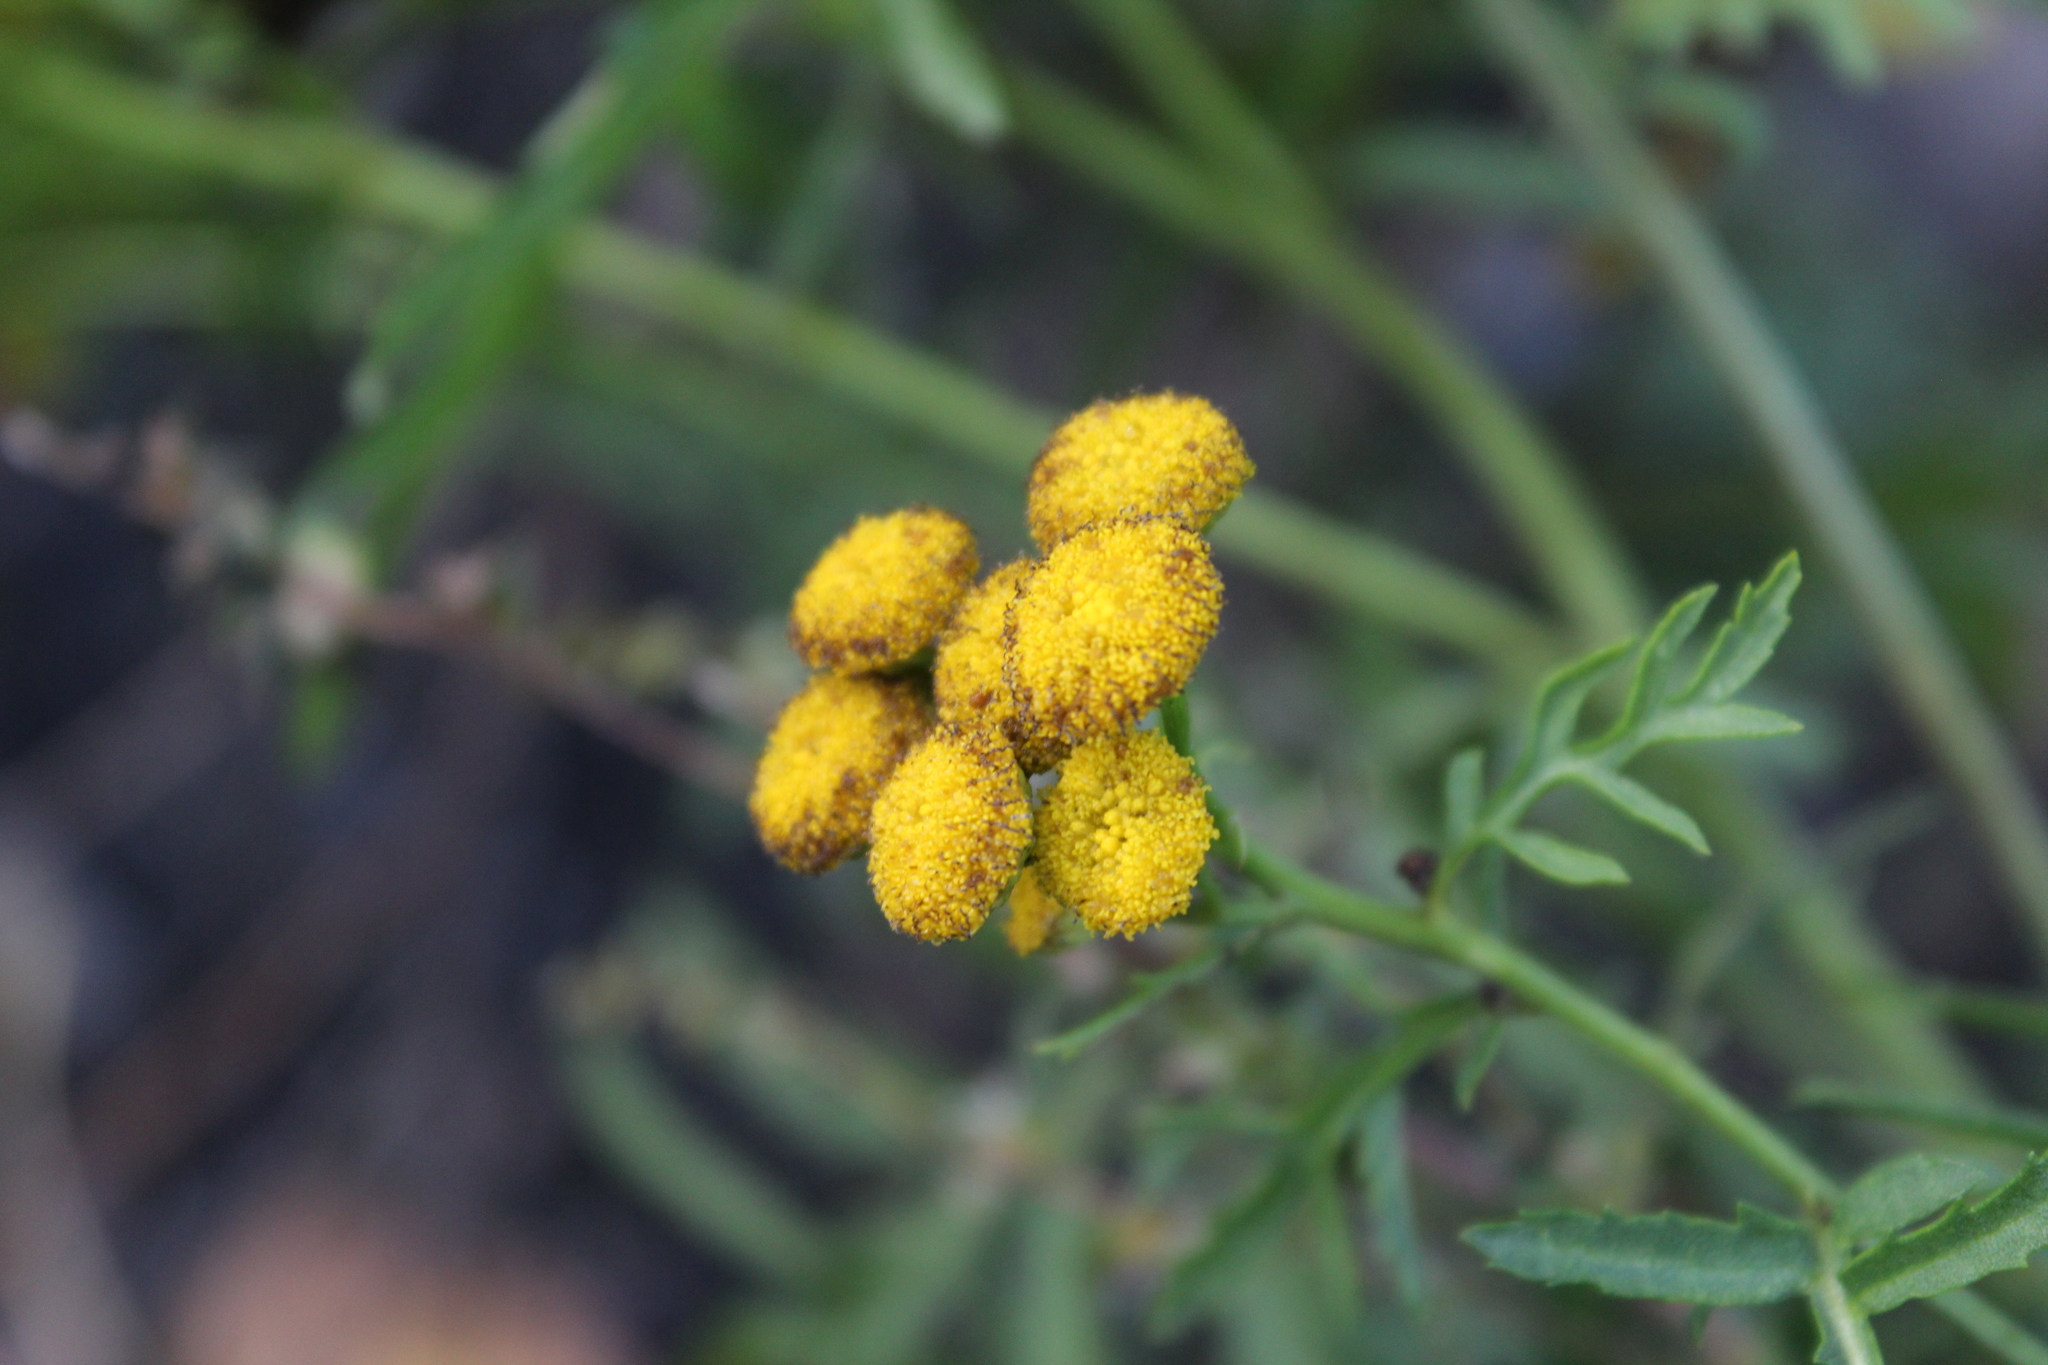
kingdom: Plantae
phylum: Tracheophyta
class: Magnoliopsida
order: Asterales
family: Asteraceae
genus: Tanacetum
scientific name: Tanacetum vulgare
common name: Common tansy
